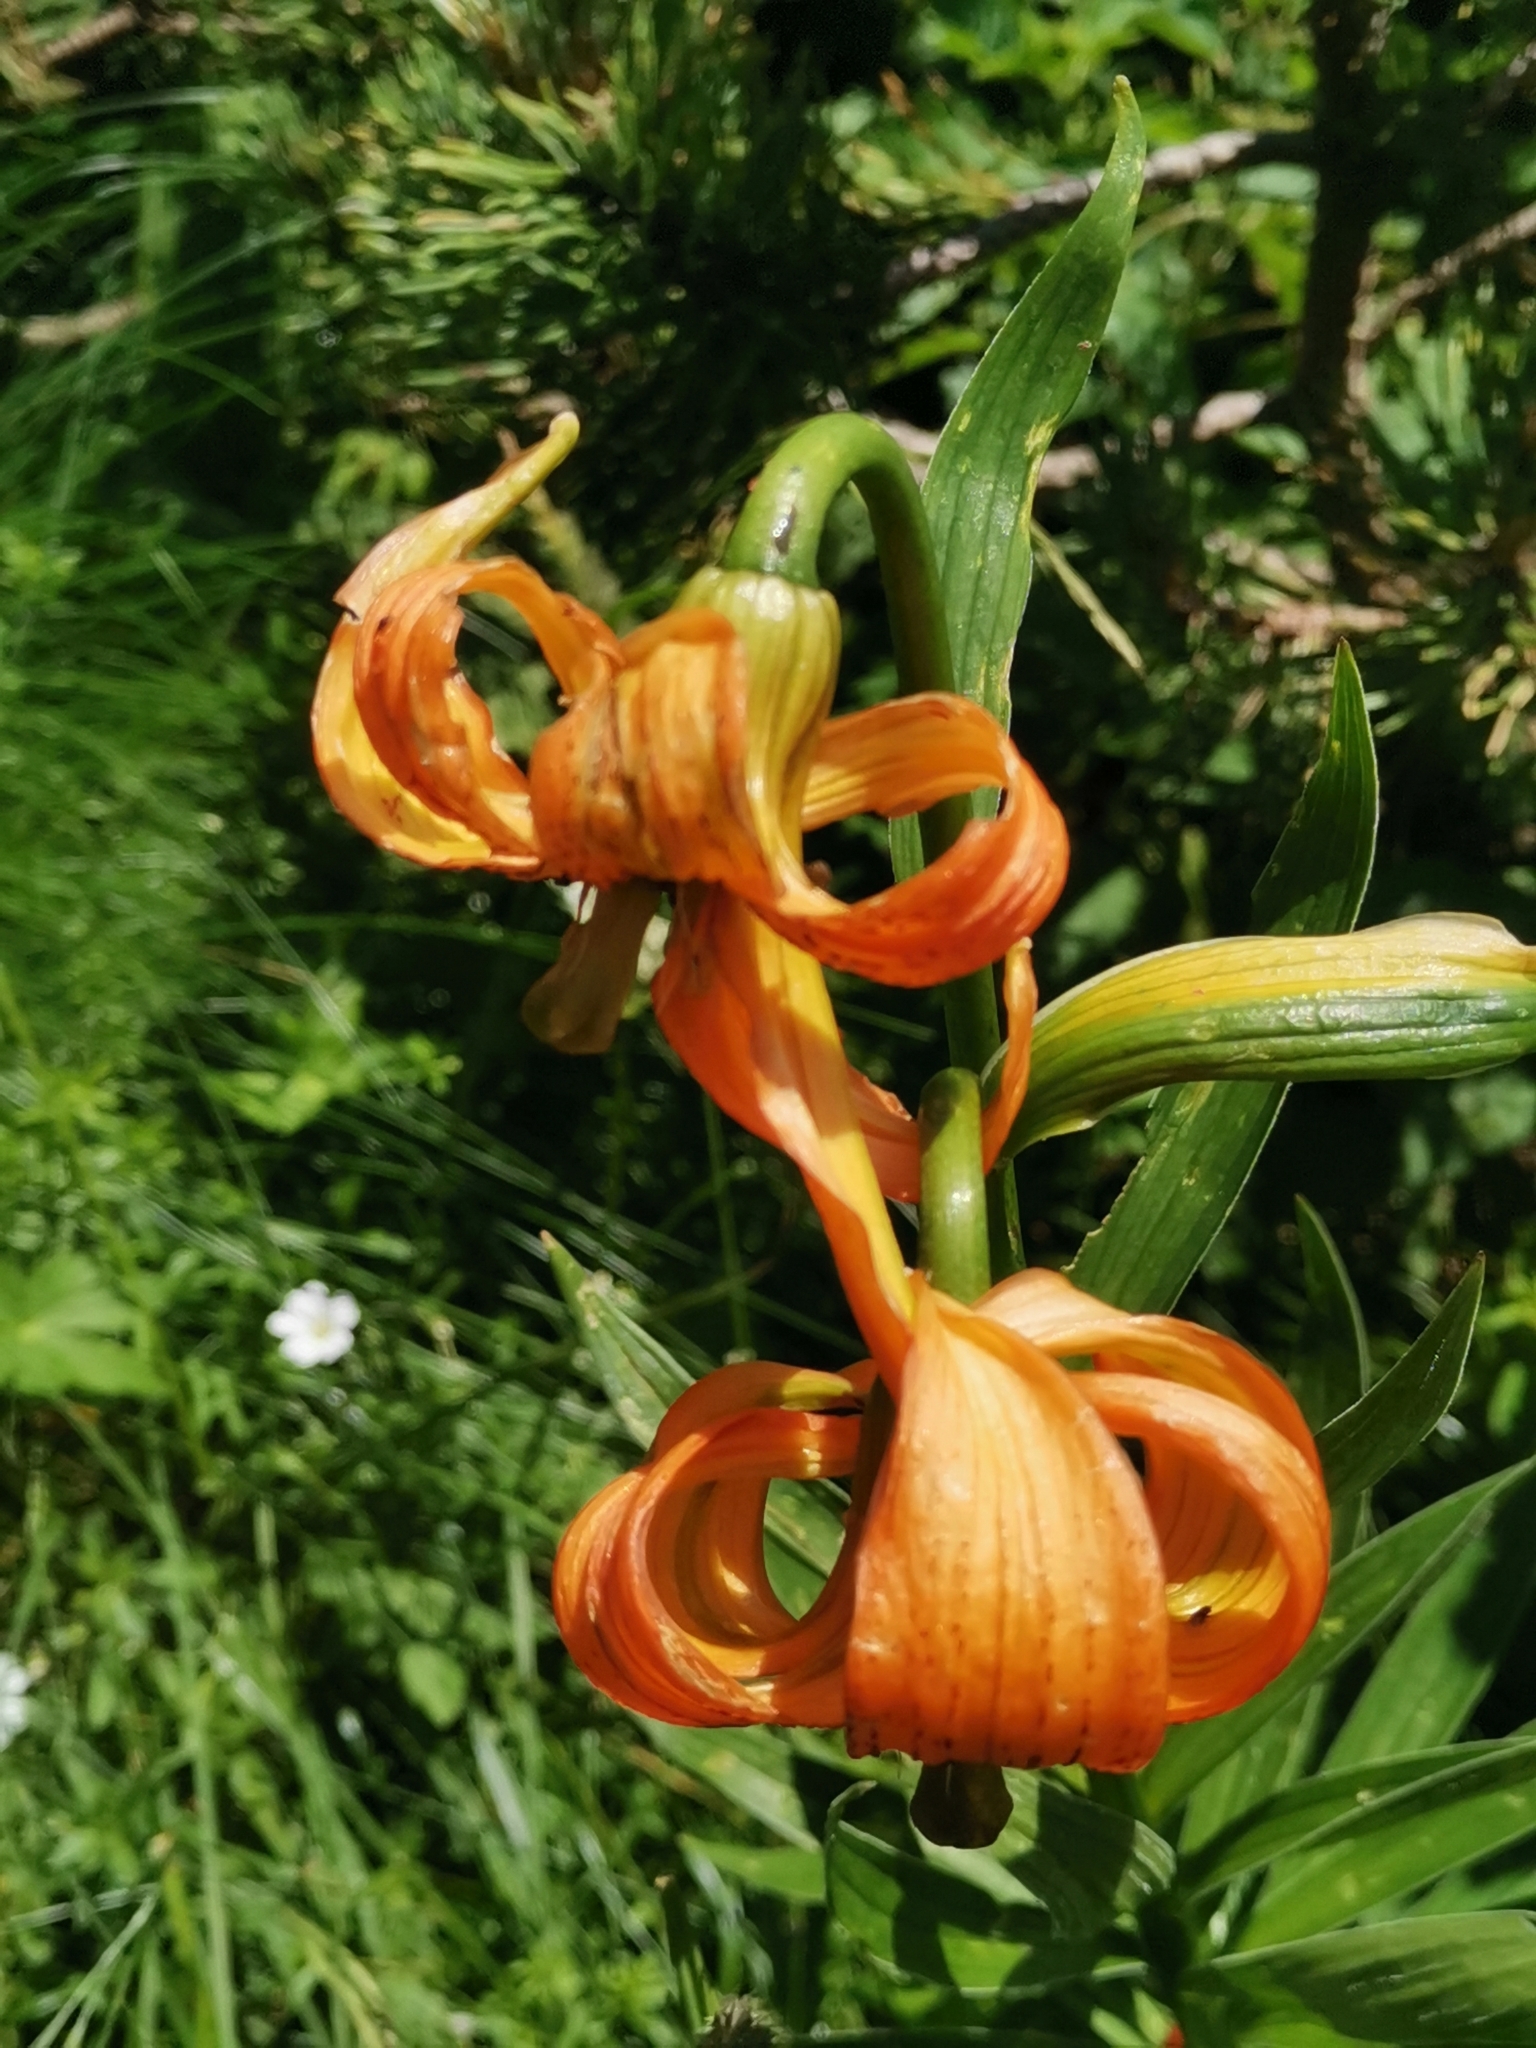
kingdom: Plantae
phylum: Tracheophyta
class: Liliopsida
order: Liliales
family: Liliaceae
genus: Lilium
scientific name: Lilium carniolicum
